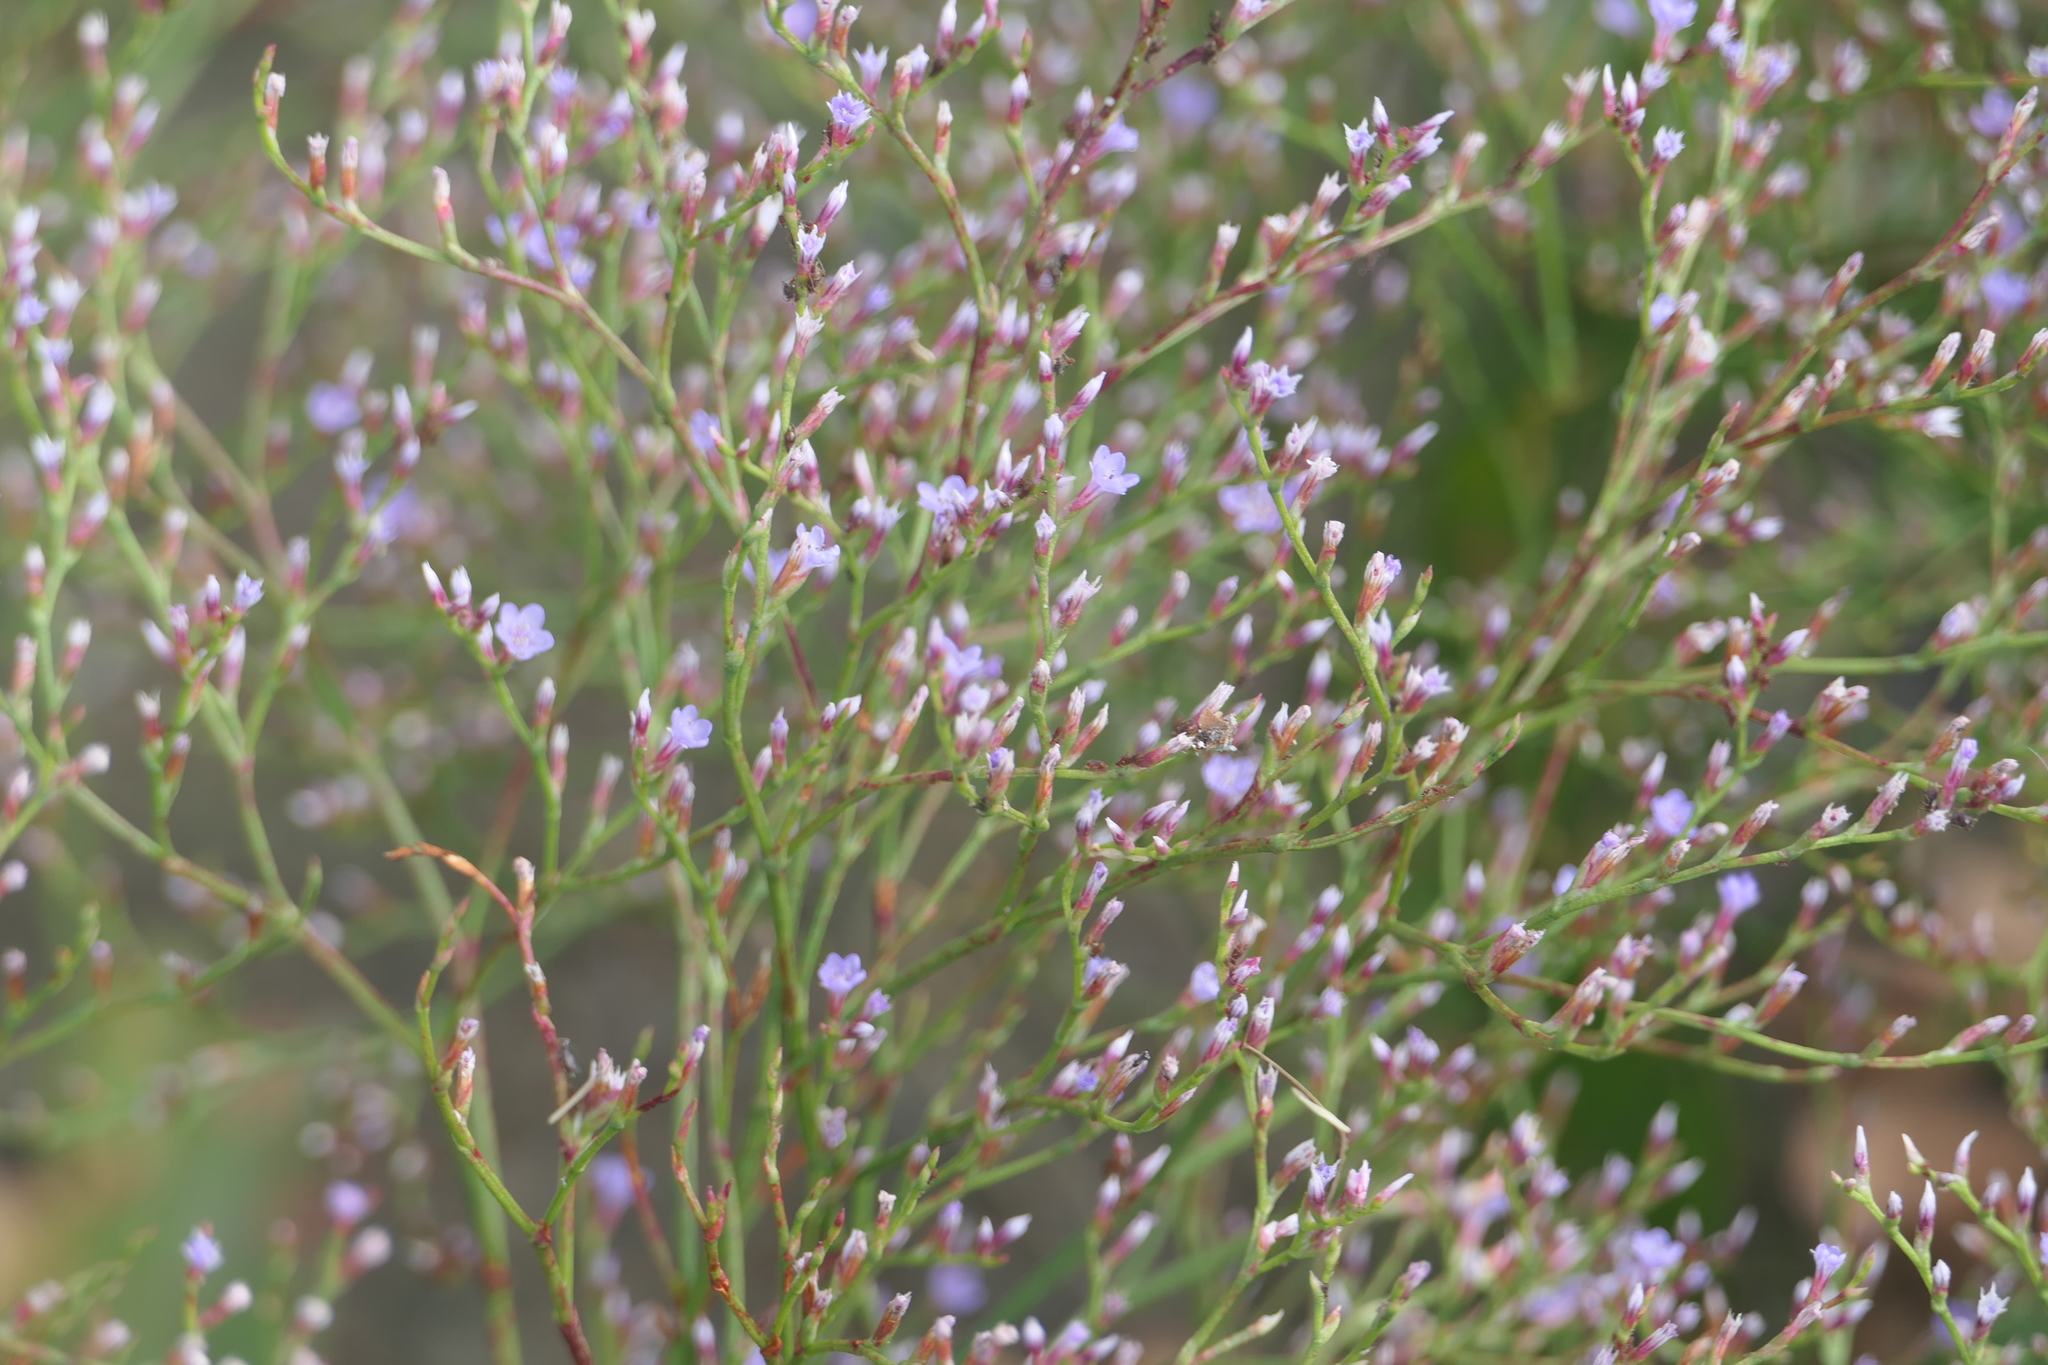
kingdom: Plantae
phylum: Tracheophyta
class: Magnoliopsida
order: Caryophyllales
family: Plumbaginaceae
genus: Limonium
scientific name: Limonium carolinianum
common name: Carolina sea lavender
